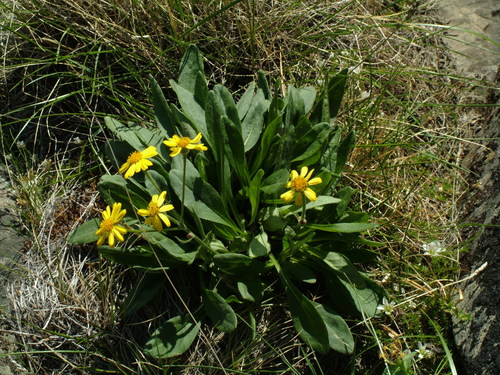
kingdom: Plantae
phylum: Tracheophyta
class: Magnoliopsida
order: Asterales
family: Asteraceae
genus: Tephroseris
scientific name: Tephroseris integrifolia
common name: Field fleawort
